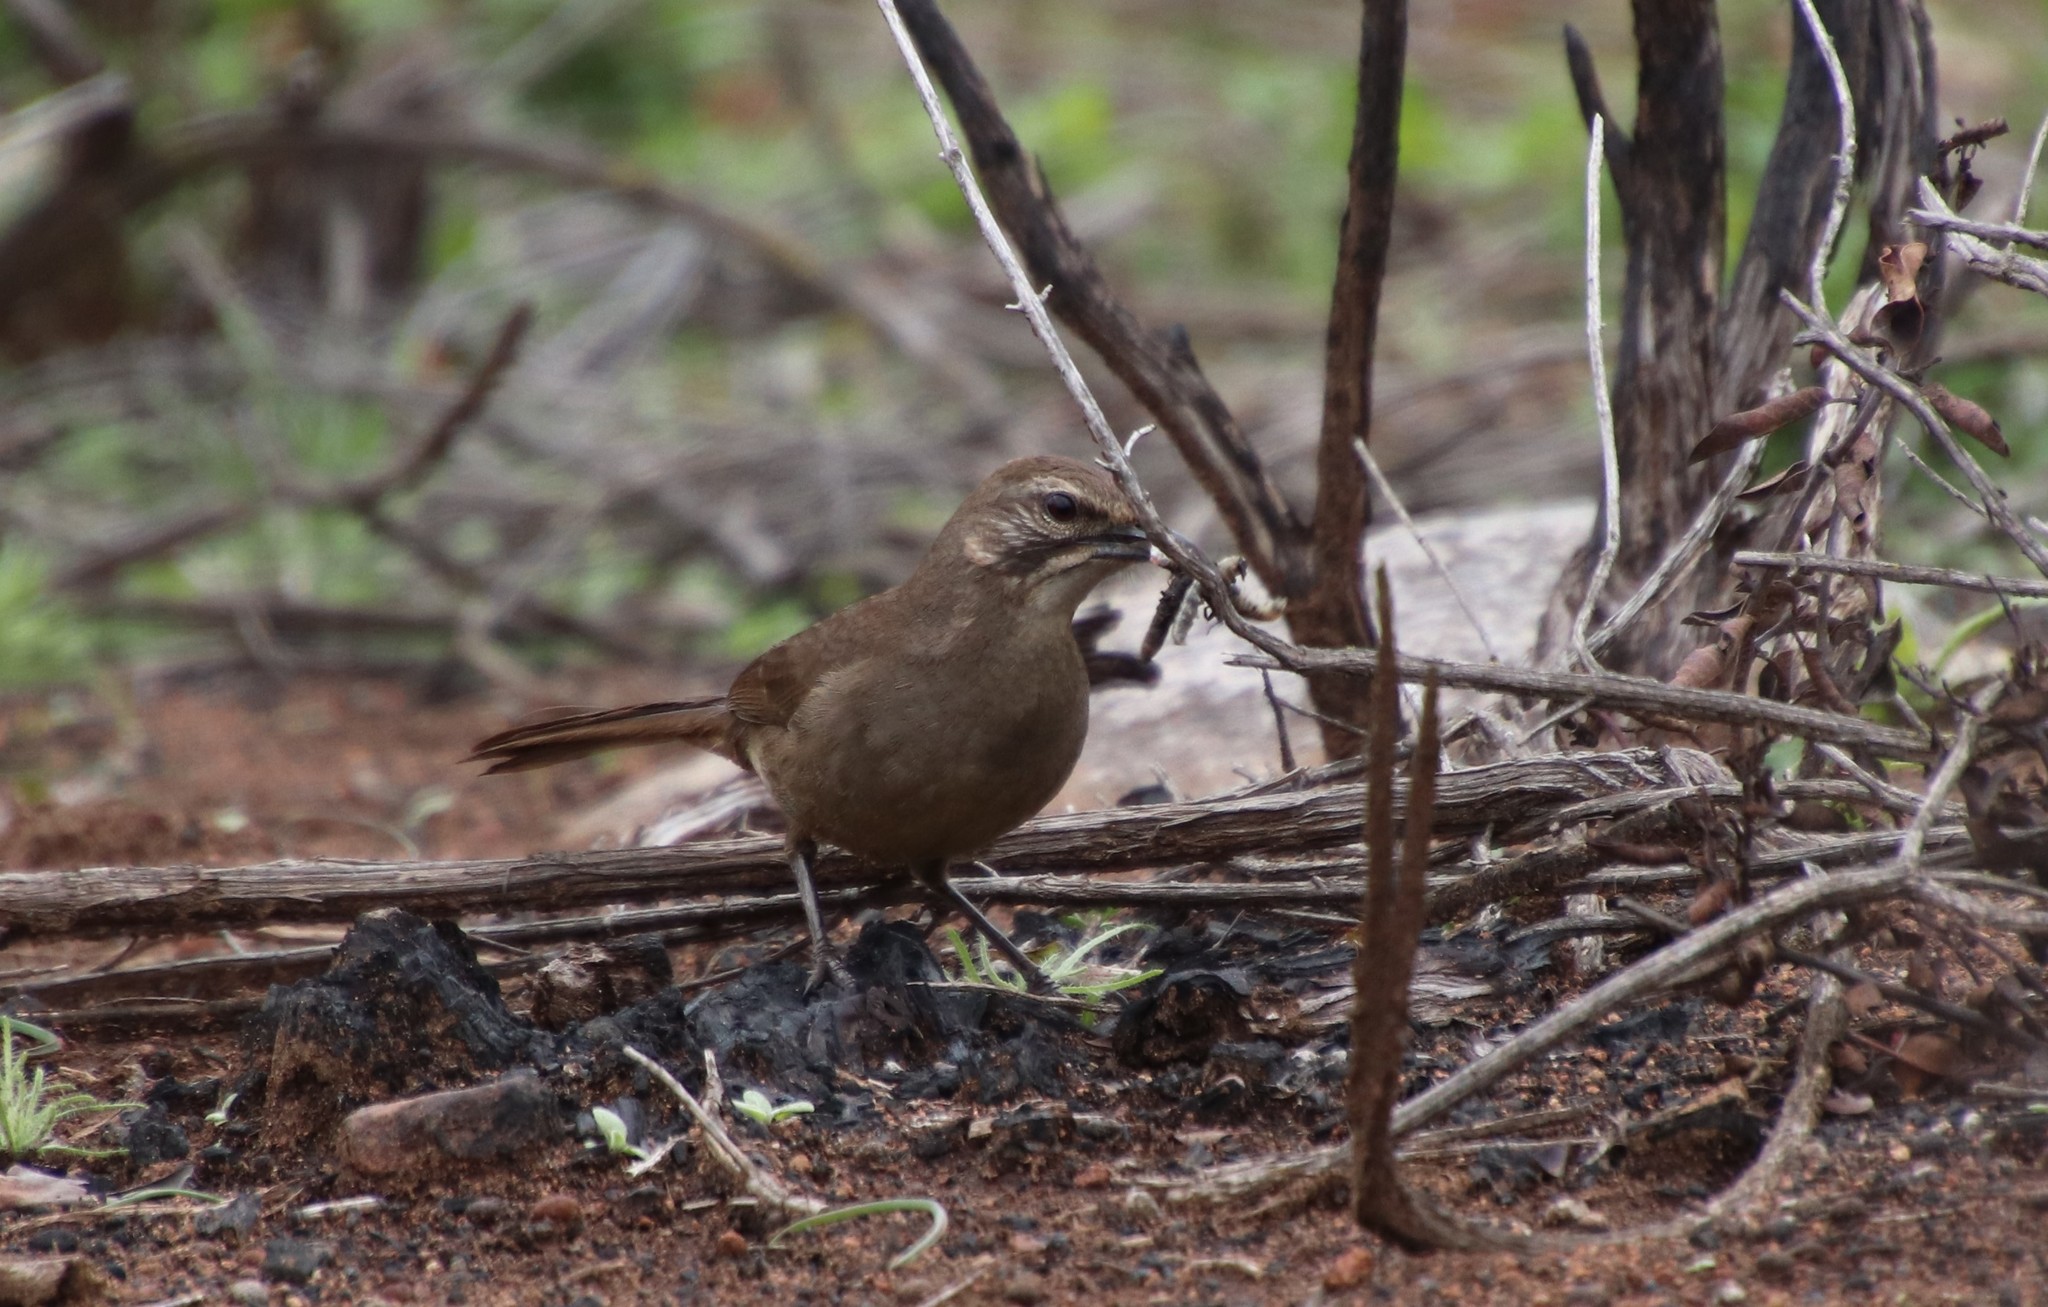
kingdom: Animalia
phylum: Chordata
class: Aves
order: Passeriformes
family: Mimidae
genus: Toxostoma
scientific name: Toxostoma redivivum
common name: California thrasher
